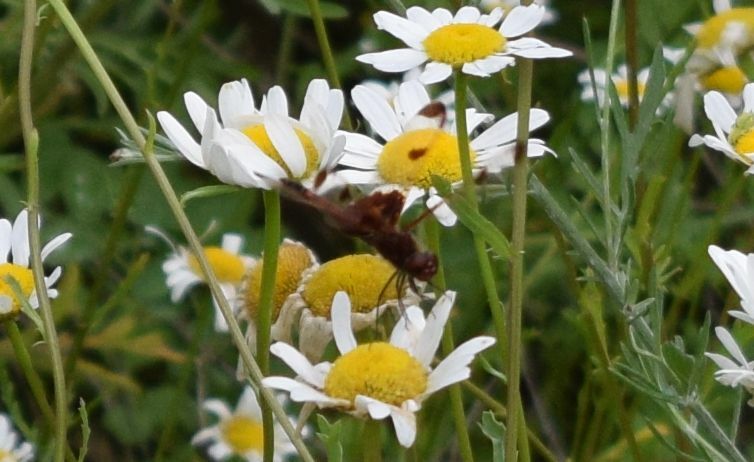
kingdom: Animalia
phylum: Arthropoda
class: Insecta
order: Odonata
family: Libellulidae
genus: Celithemis
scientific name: Celithemis elisa
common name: Calico pennant
